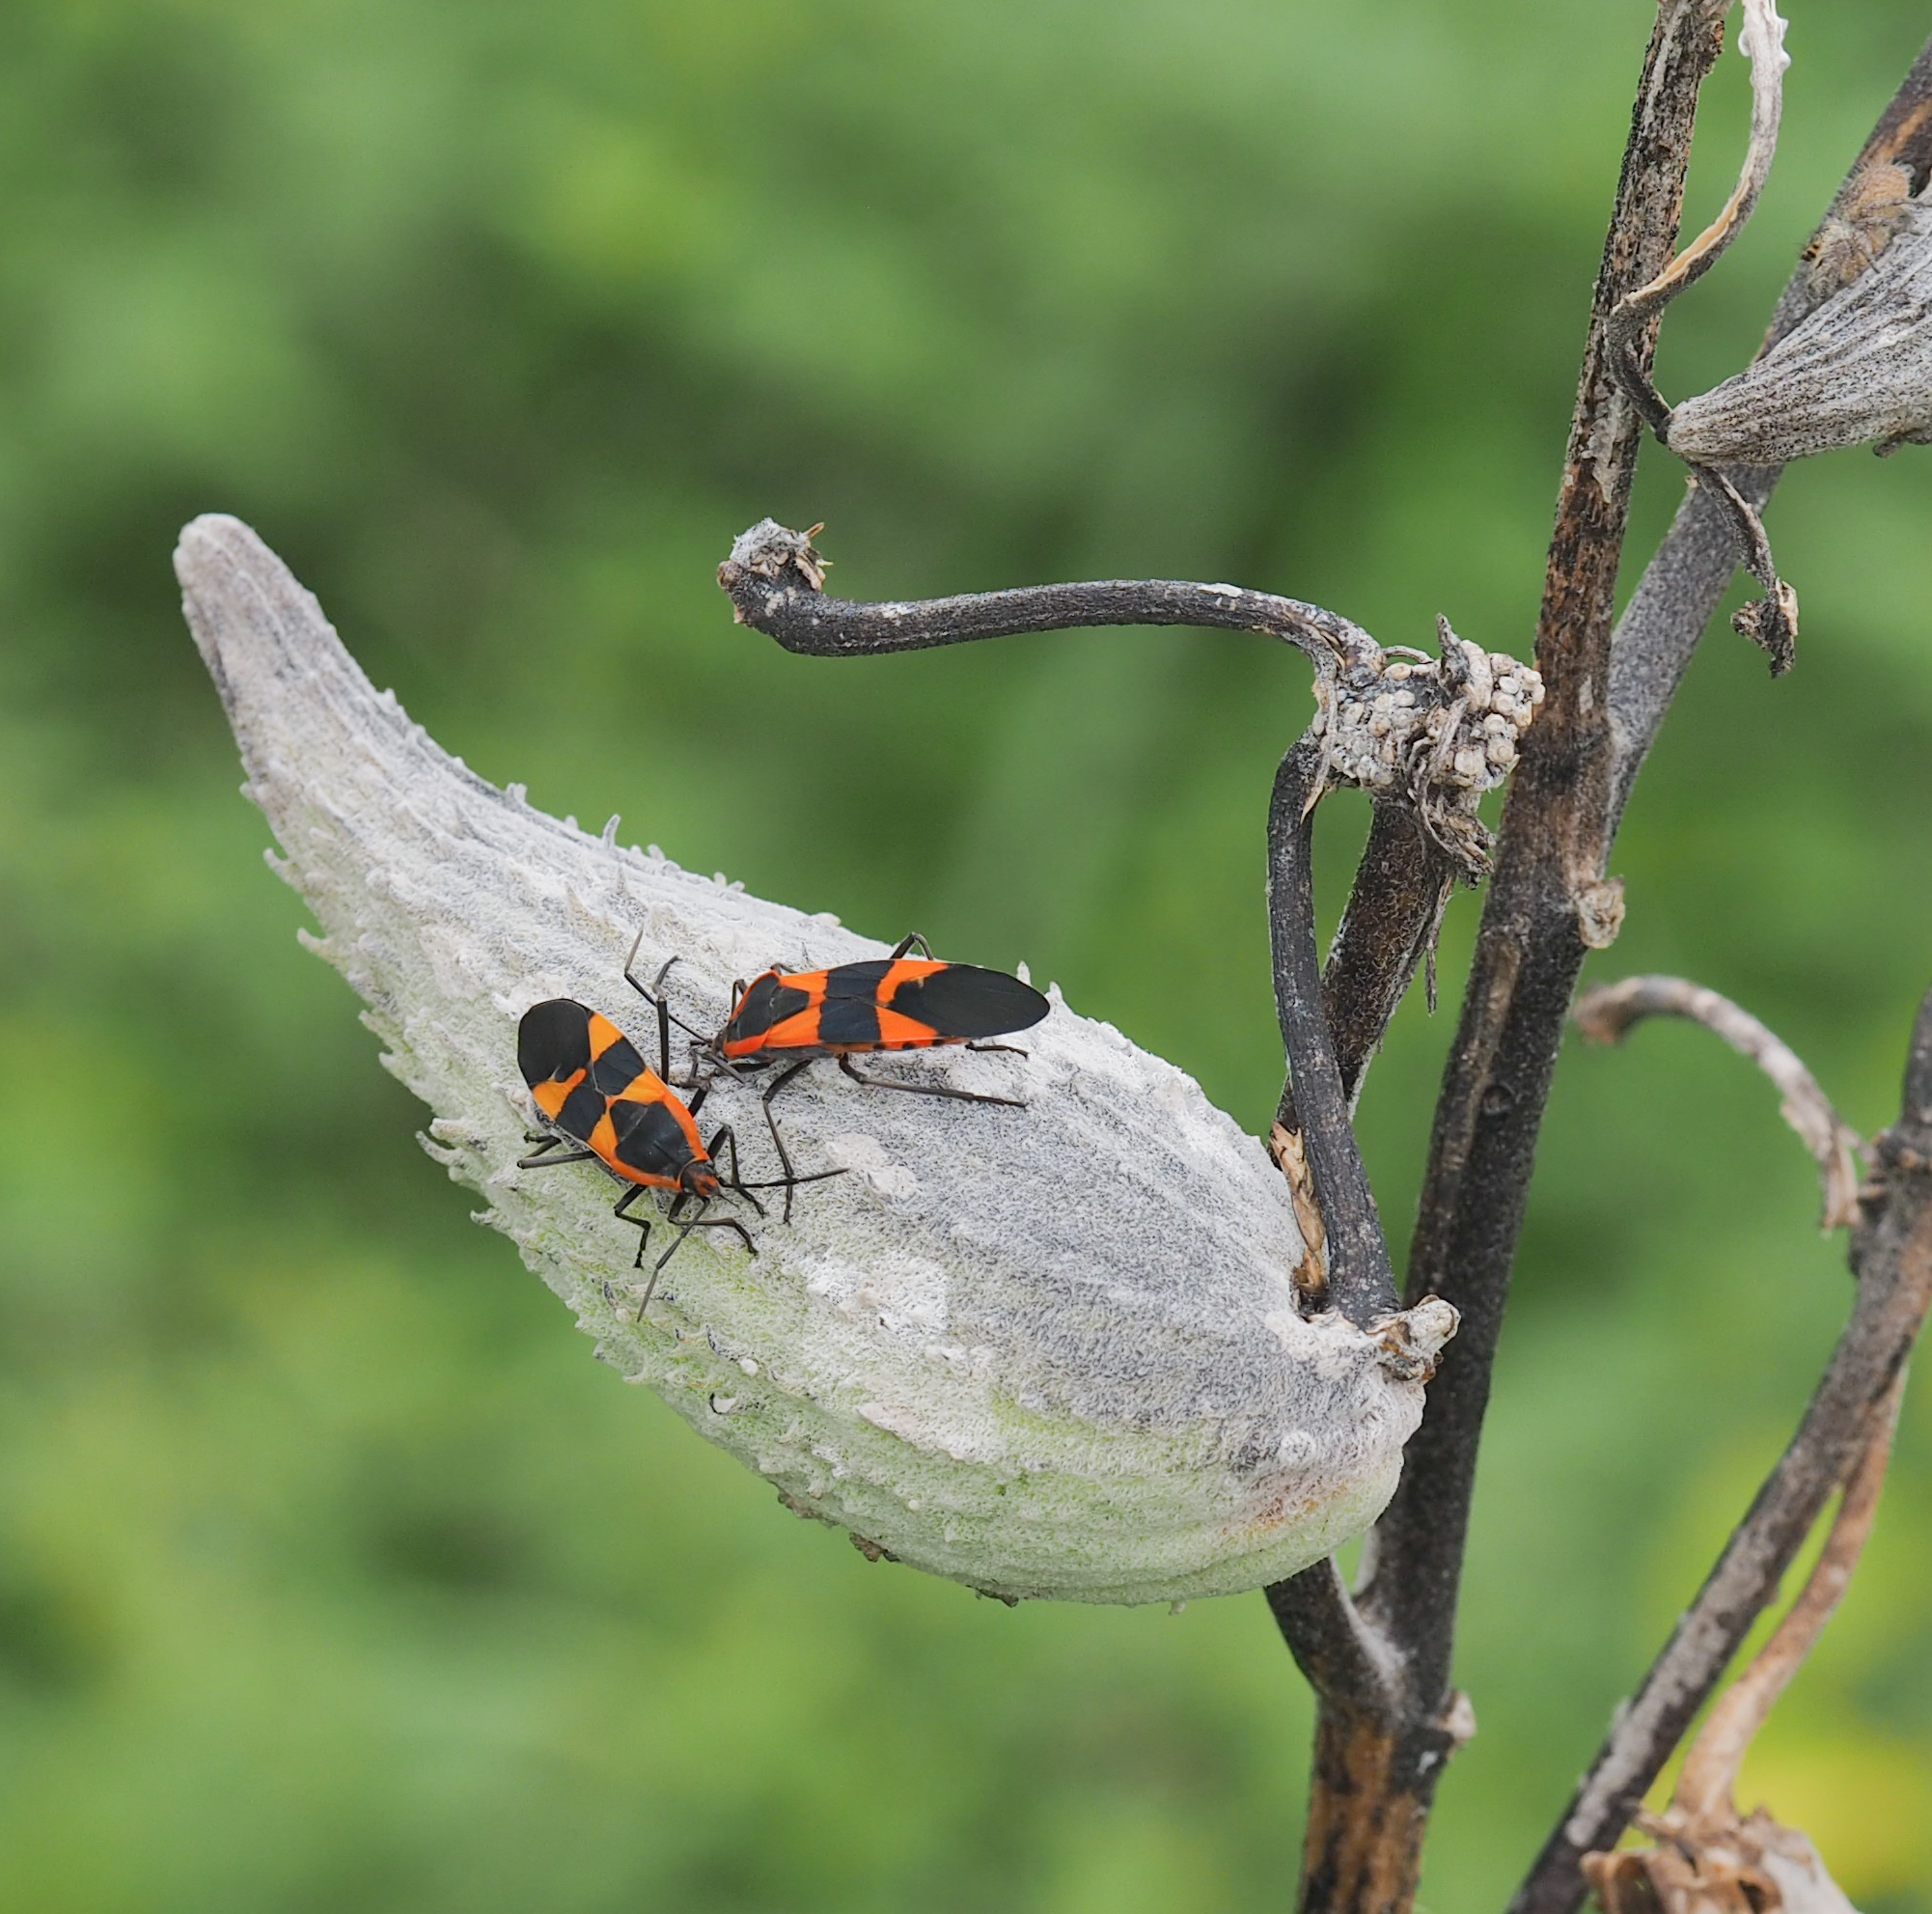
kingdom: Animalia
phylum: Arthropoda
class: Insecta
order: Hemiptera
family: Lygaeidae
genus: Oncopeltus
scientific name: Oncopeltus fasciatus
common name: Large milkweed bug
